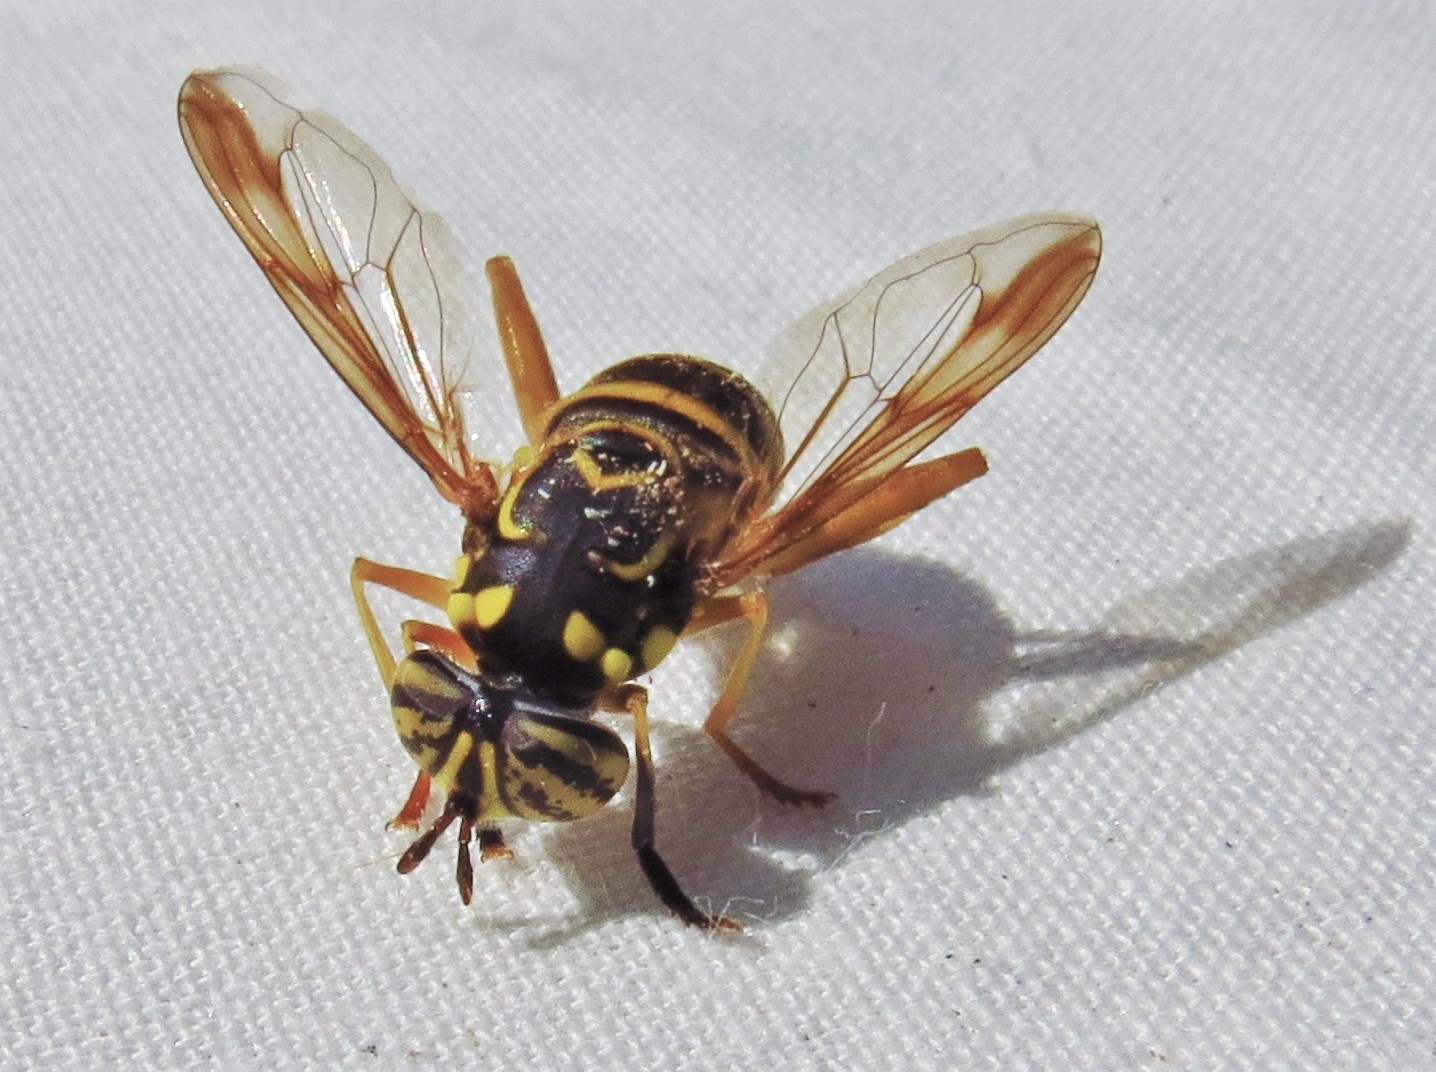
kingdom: Animalia
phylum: Arthropoda
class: Insecta
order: Diptera
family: Syrphidae
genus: Spilomyia
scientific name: Spilomyia longicornis
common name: Eastern hornet fly
